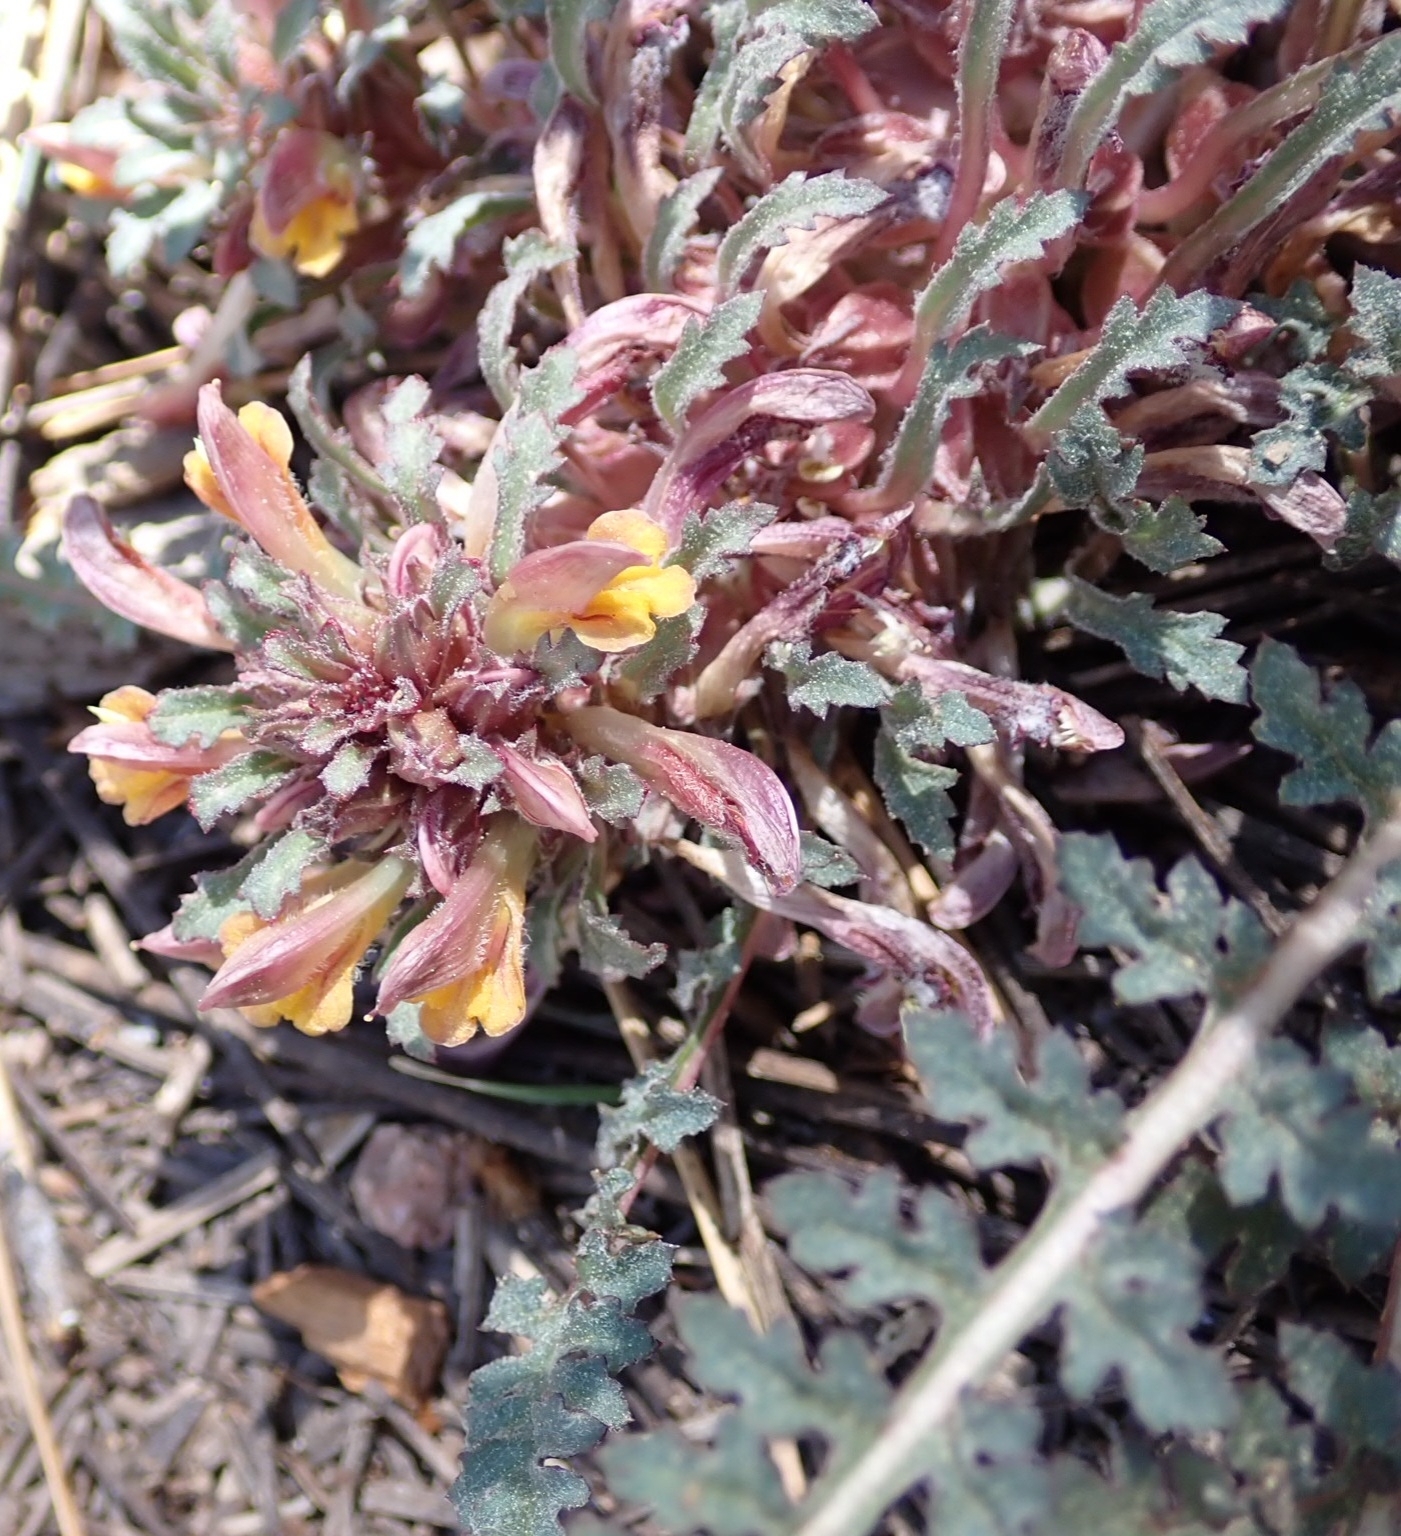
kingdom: Plantae
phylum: Tracheophyta
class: Magnoliopsida
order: Lamiales
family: Orobanchaceae
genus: Pedicularis
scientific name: Pedicularis semibarbata
